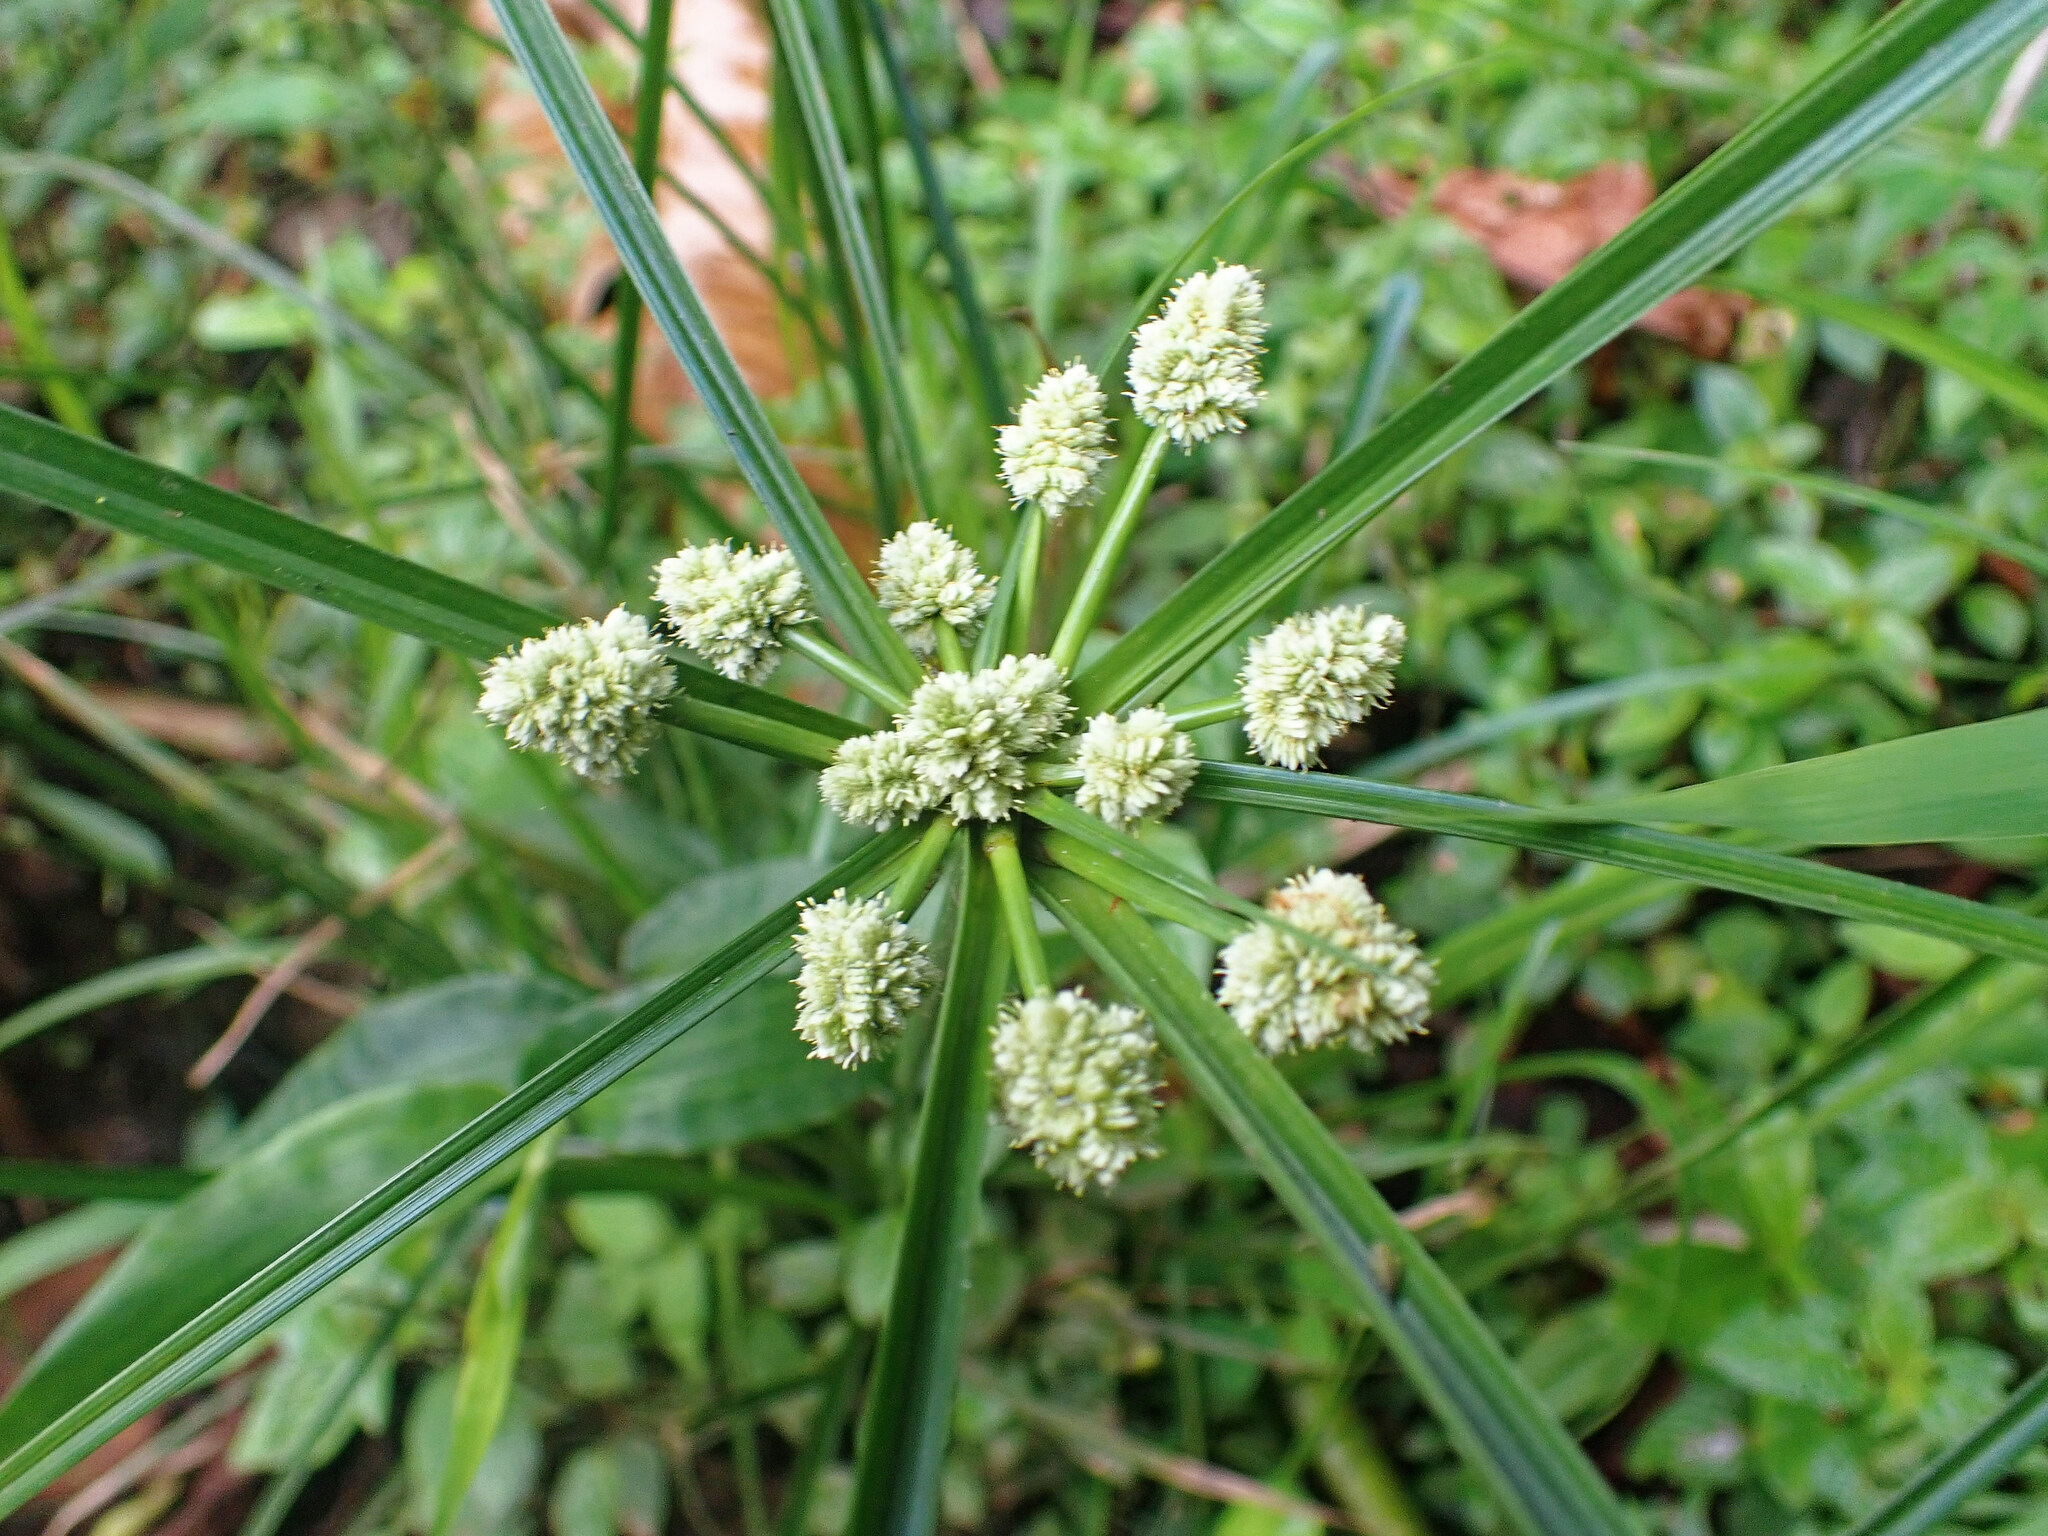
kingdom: Plantae
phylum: Tracheophyta
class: Liliopsida
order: Poales
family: Cyperaceae
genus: Cyperus
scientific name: Cyperus luzulae
